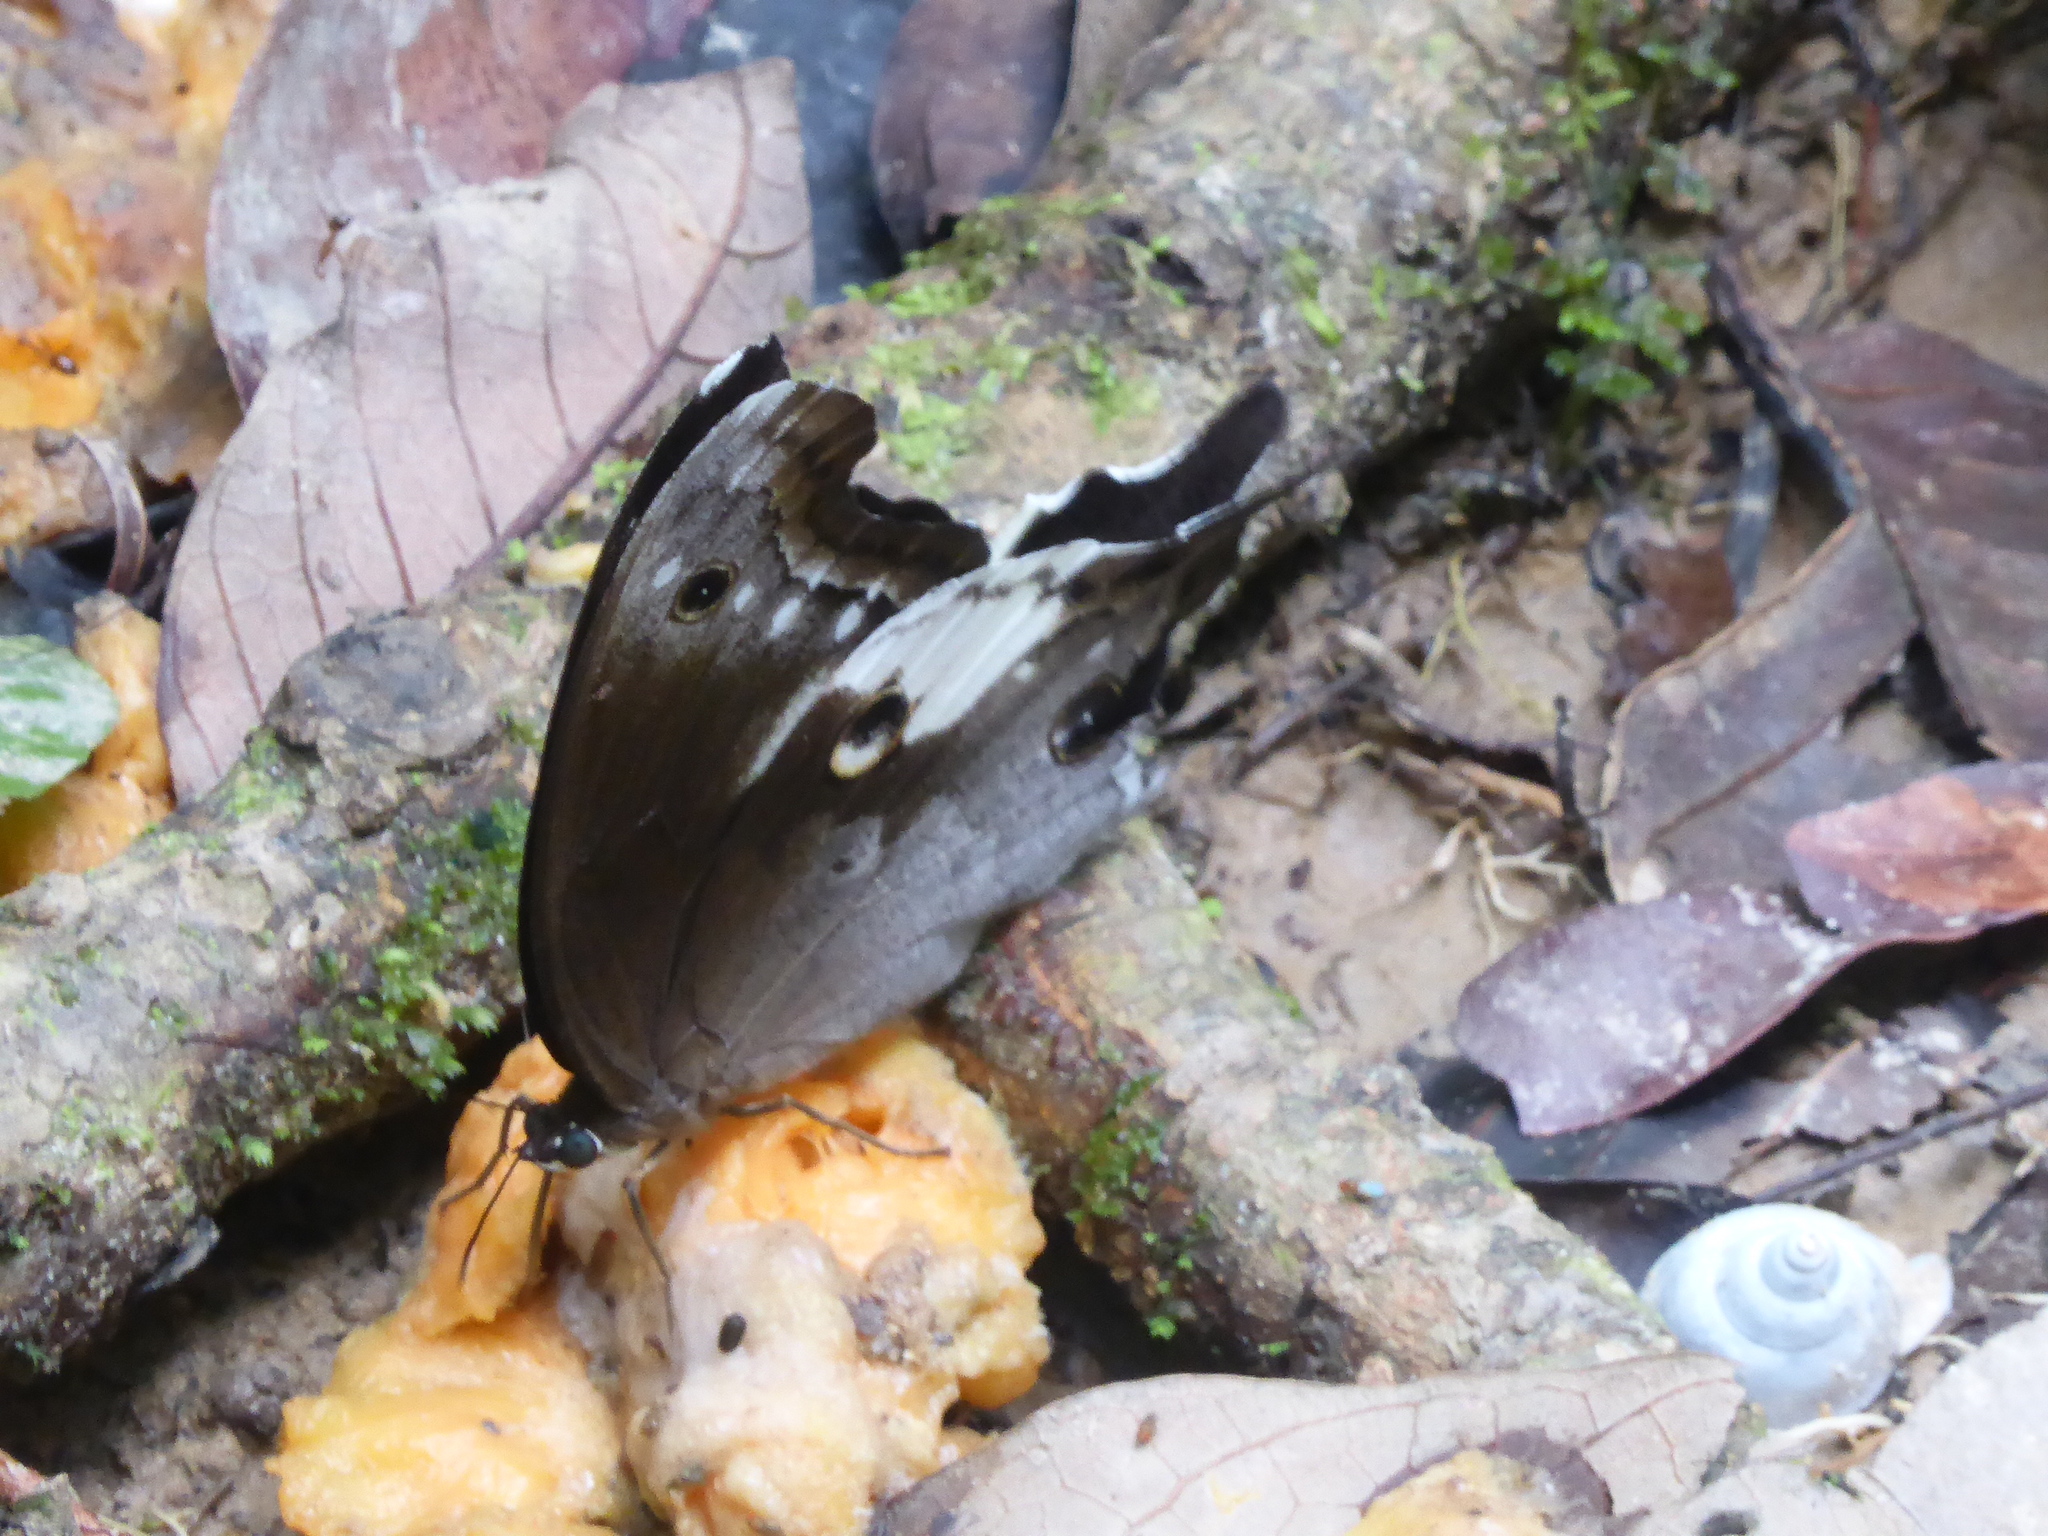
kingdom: Animalia
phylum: Arthropoda
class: Insecta
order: Lepidoptera
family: Nymphalidae
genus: Neorina
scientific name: Neorina lowii
